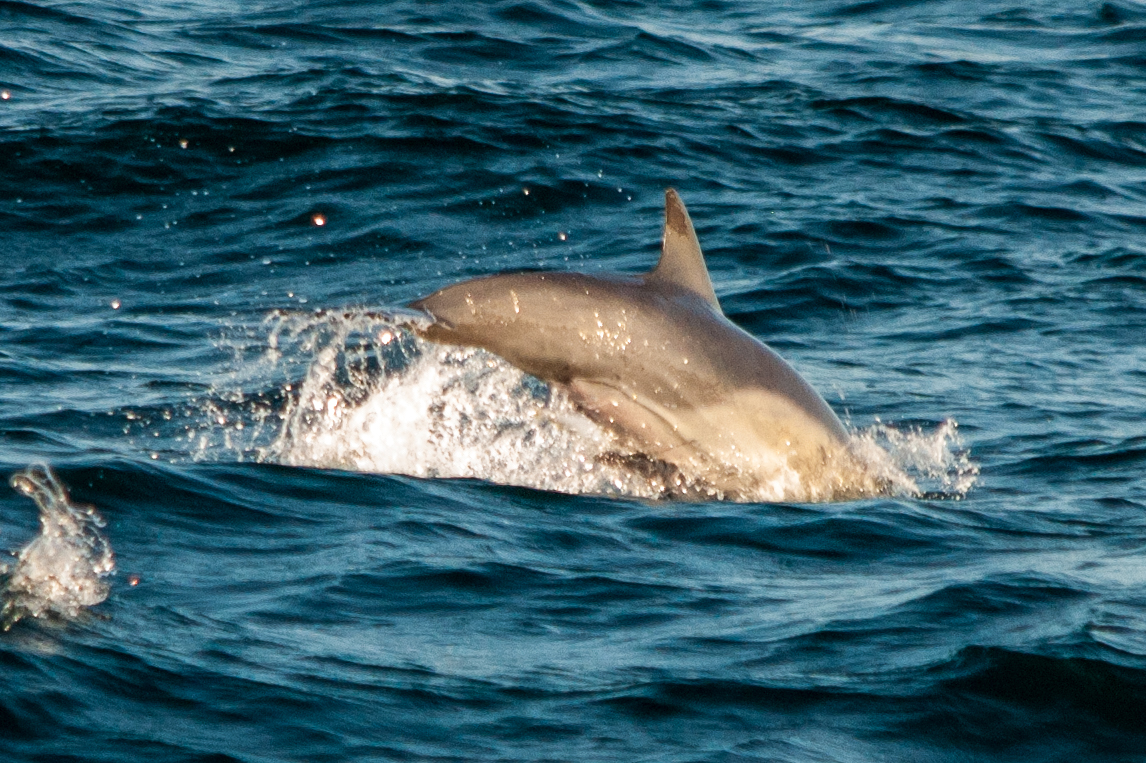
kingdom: Animalia
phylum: Chordata
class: Mammalia
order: Cetacea
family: Delphinidae
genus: Delphinus
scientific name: Delphinus delphis
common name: Common dolphin
